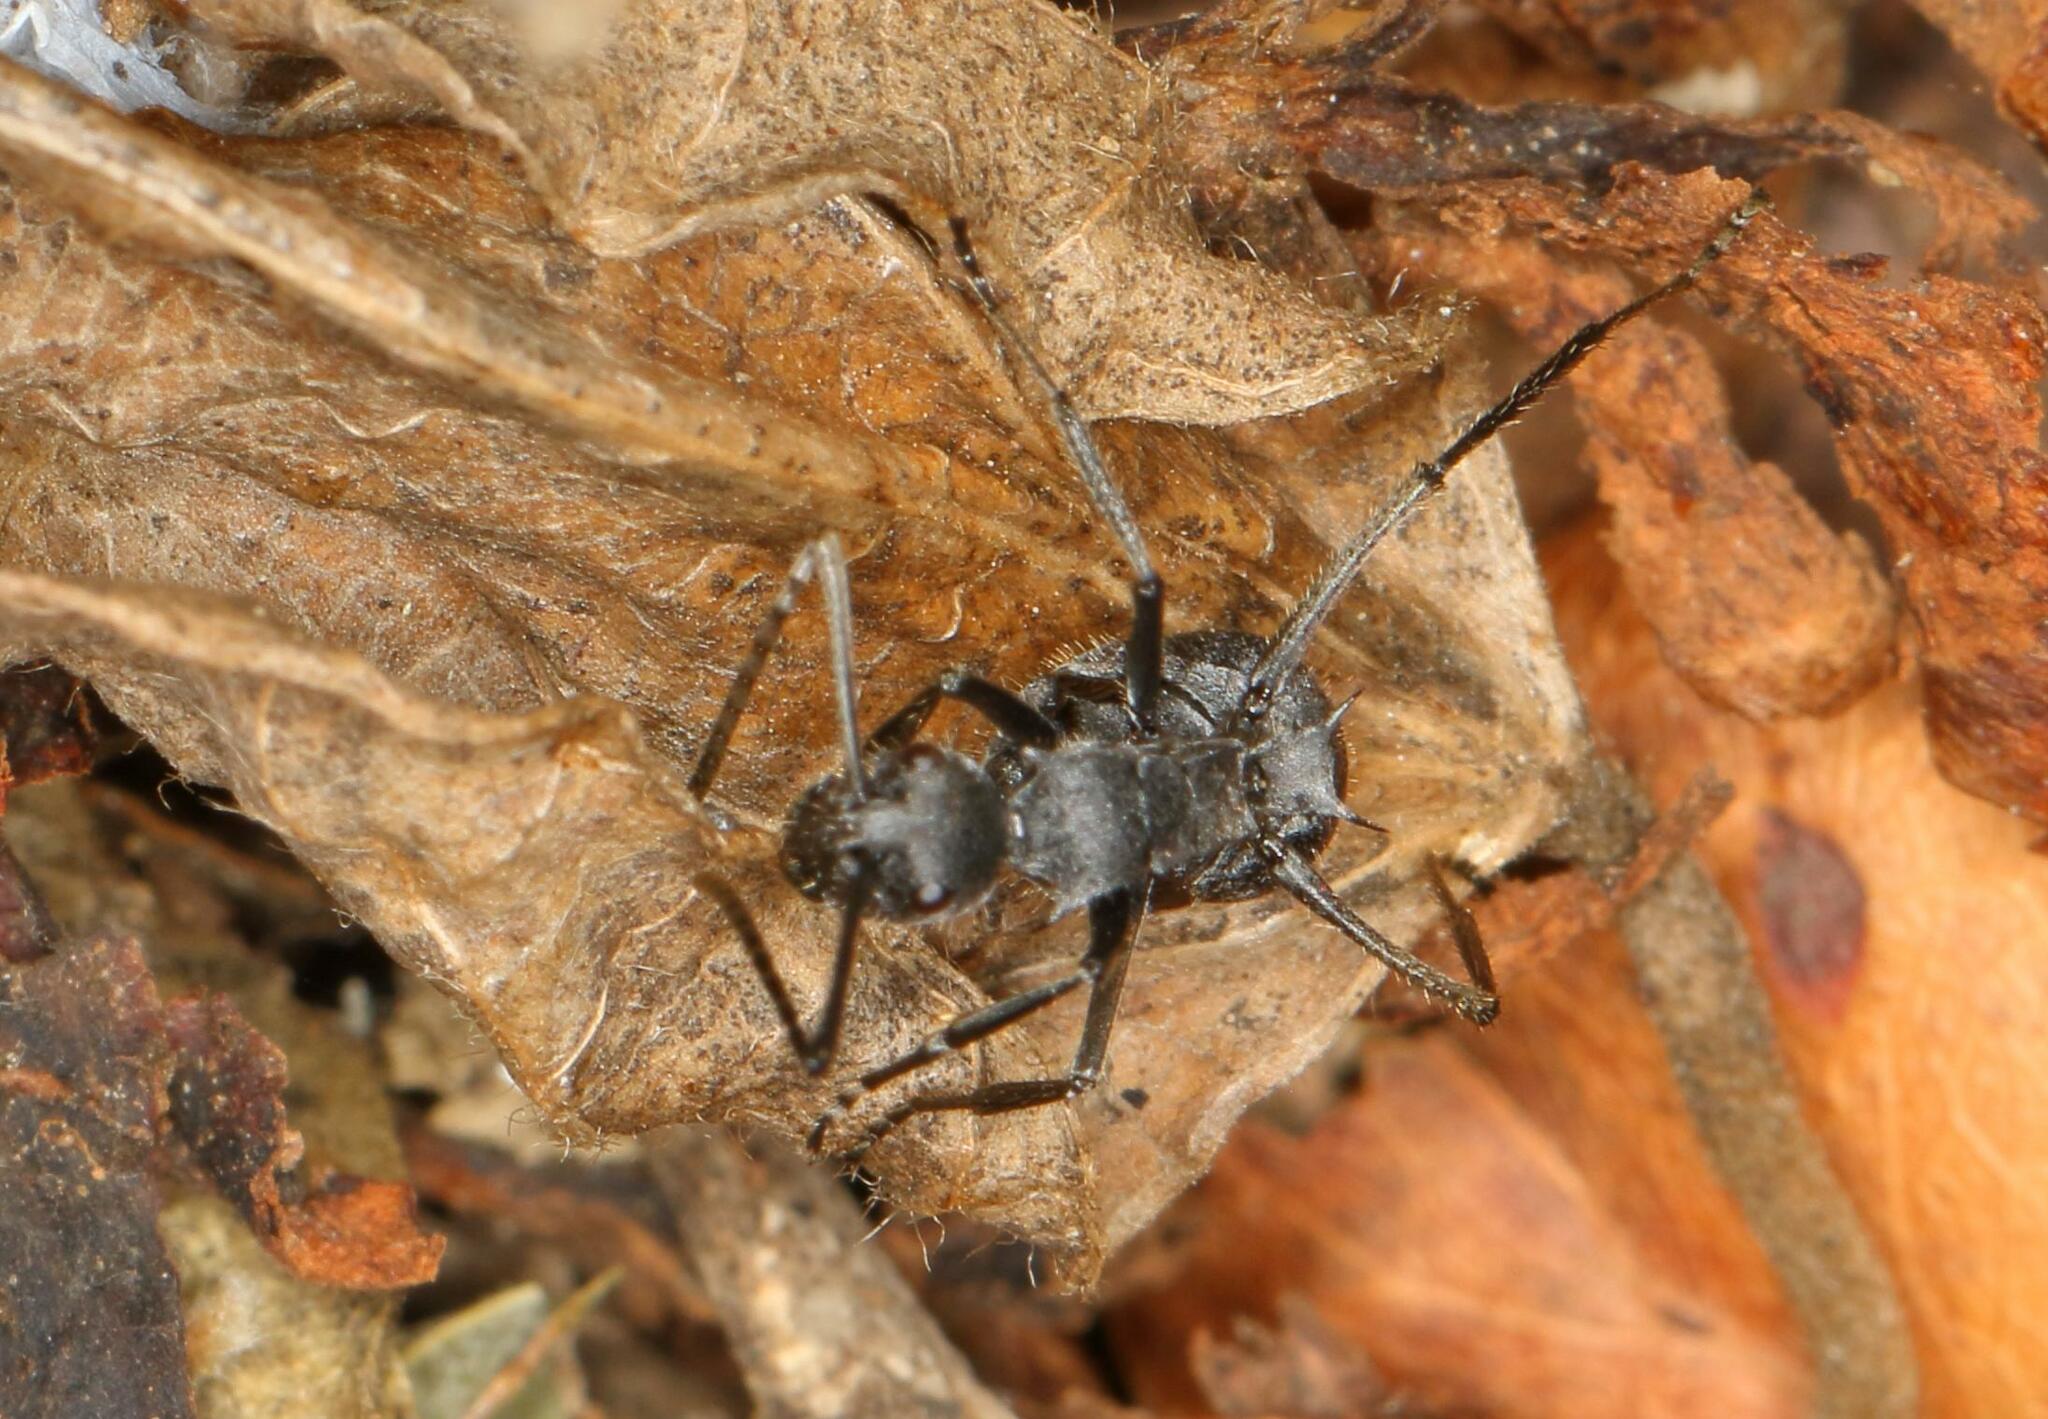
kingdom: Animalia
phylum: Arthropoda
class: Insecta
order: Hymenoptera
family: Formicidae
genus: Polyrhachis
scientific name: Polyrhachis schistacea
